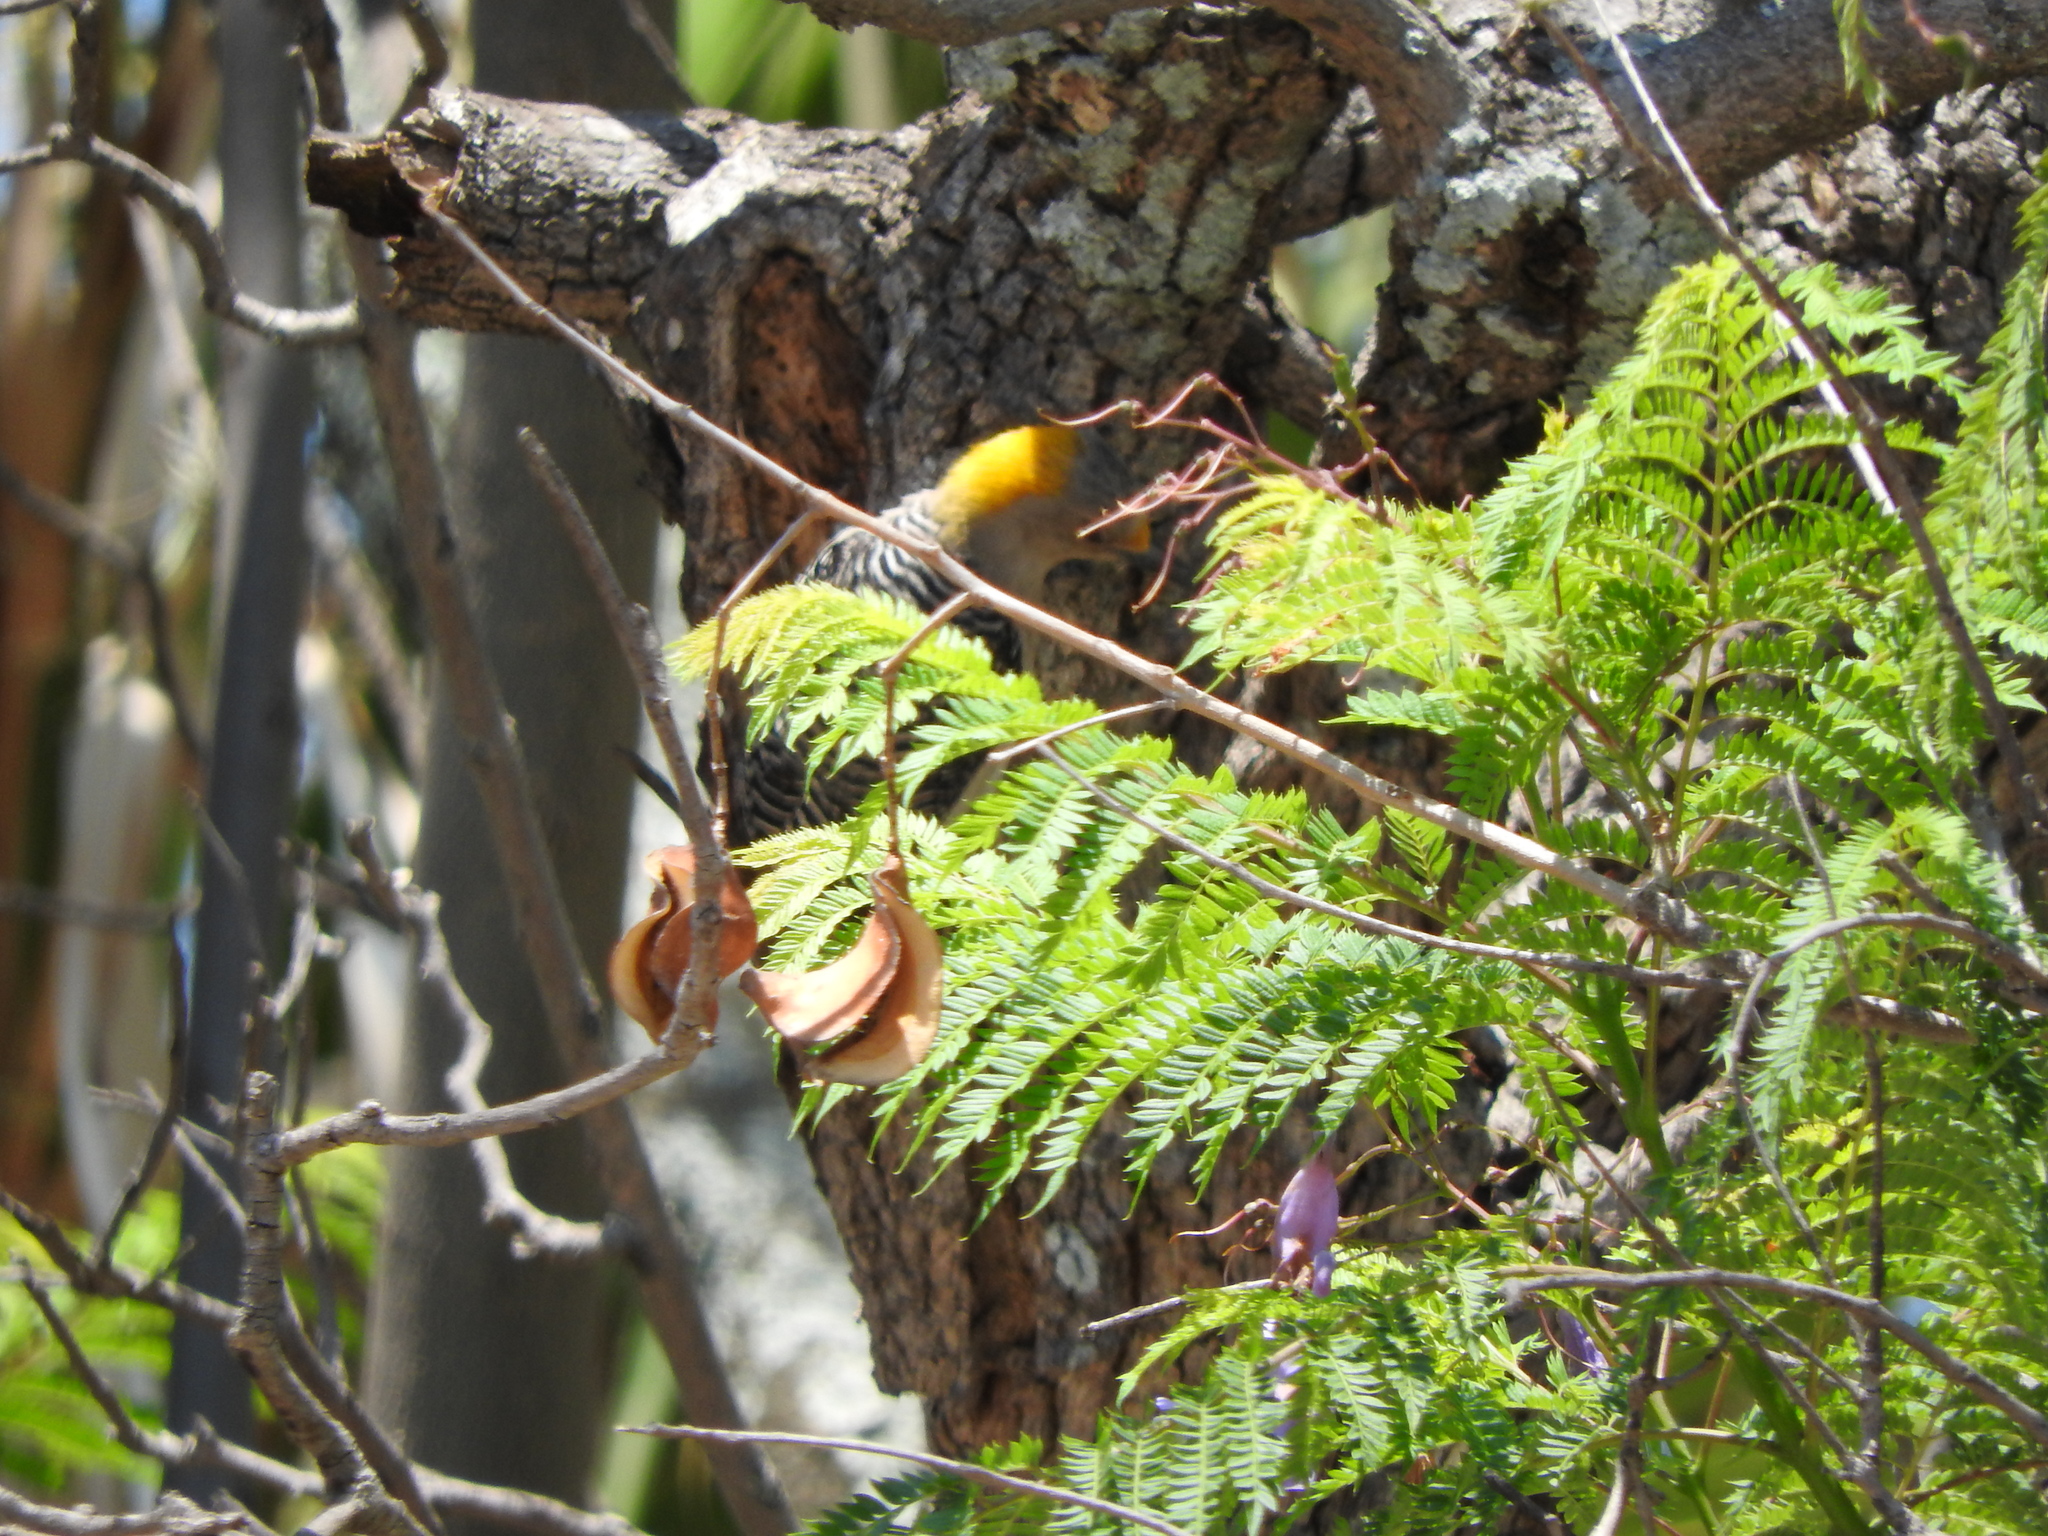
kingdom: Animalia
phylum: Chordata
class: Aves
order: Piciformes
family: Picidae
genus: Melanerpes
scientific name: Melanerpes aurifrons
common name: Golden-fronted woodpecker
